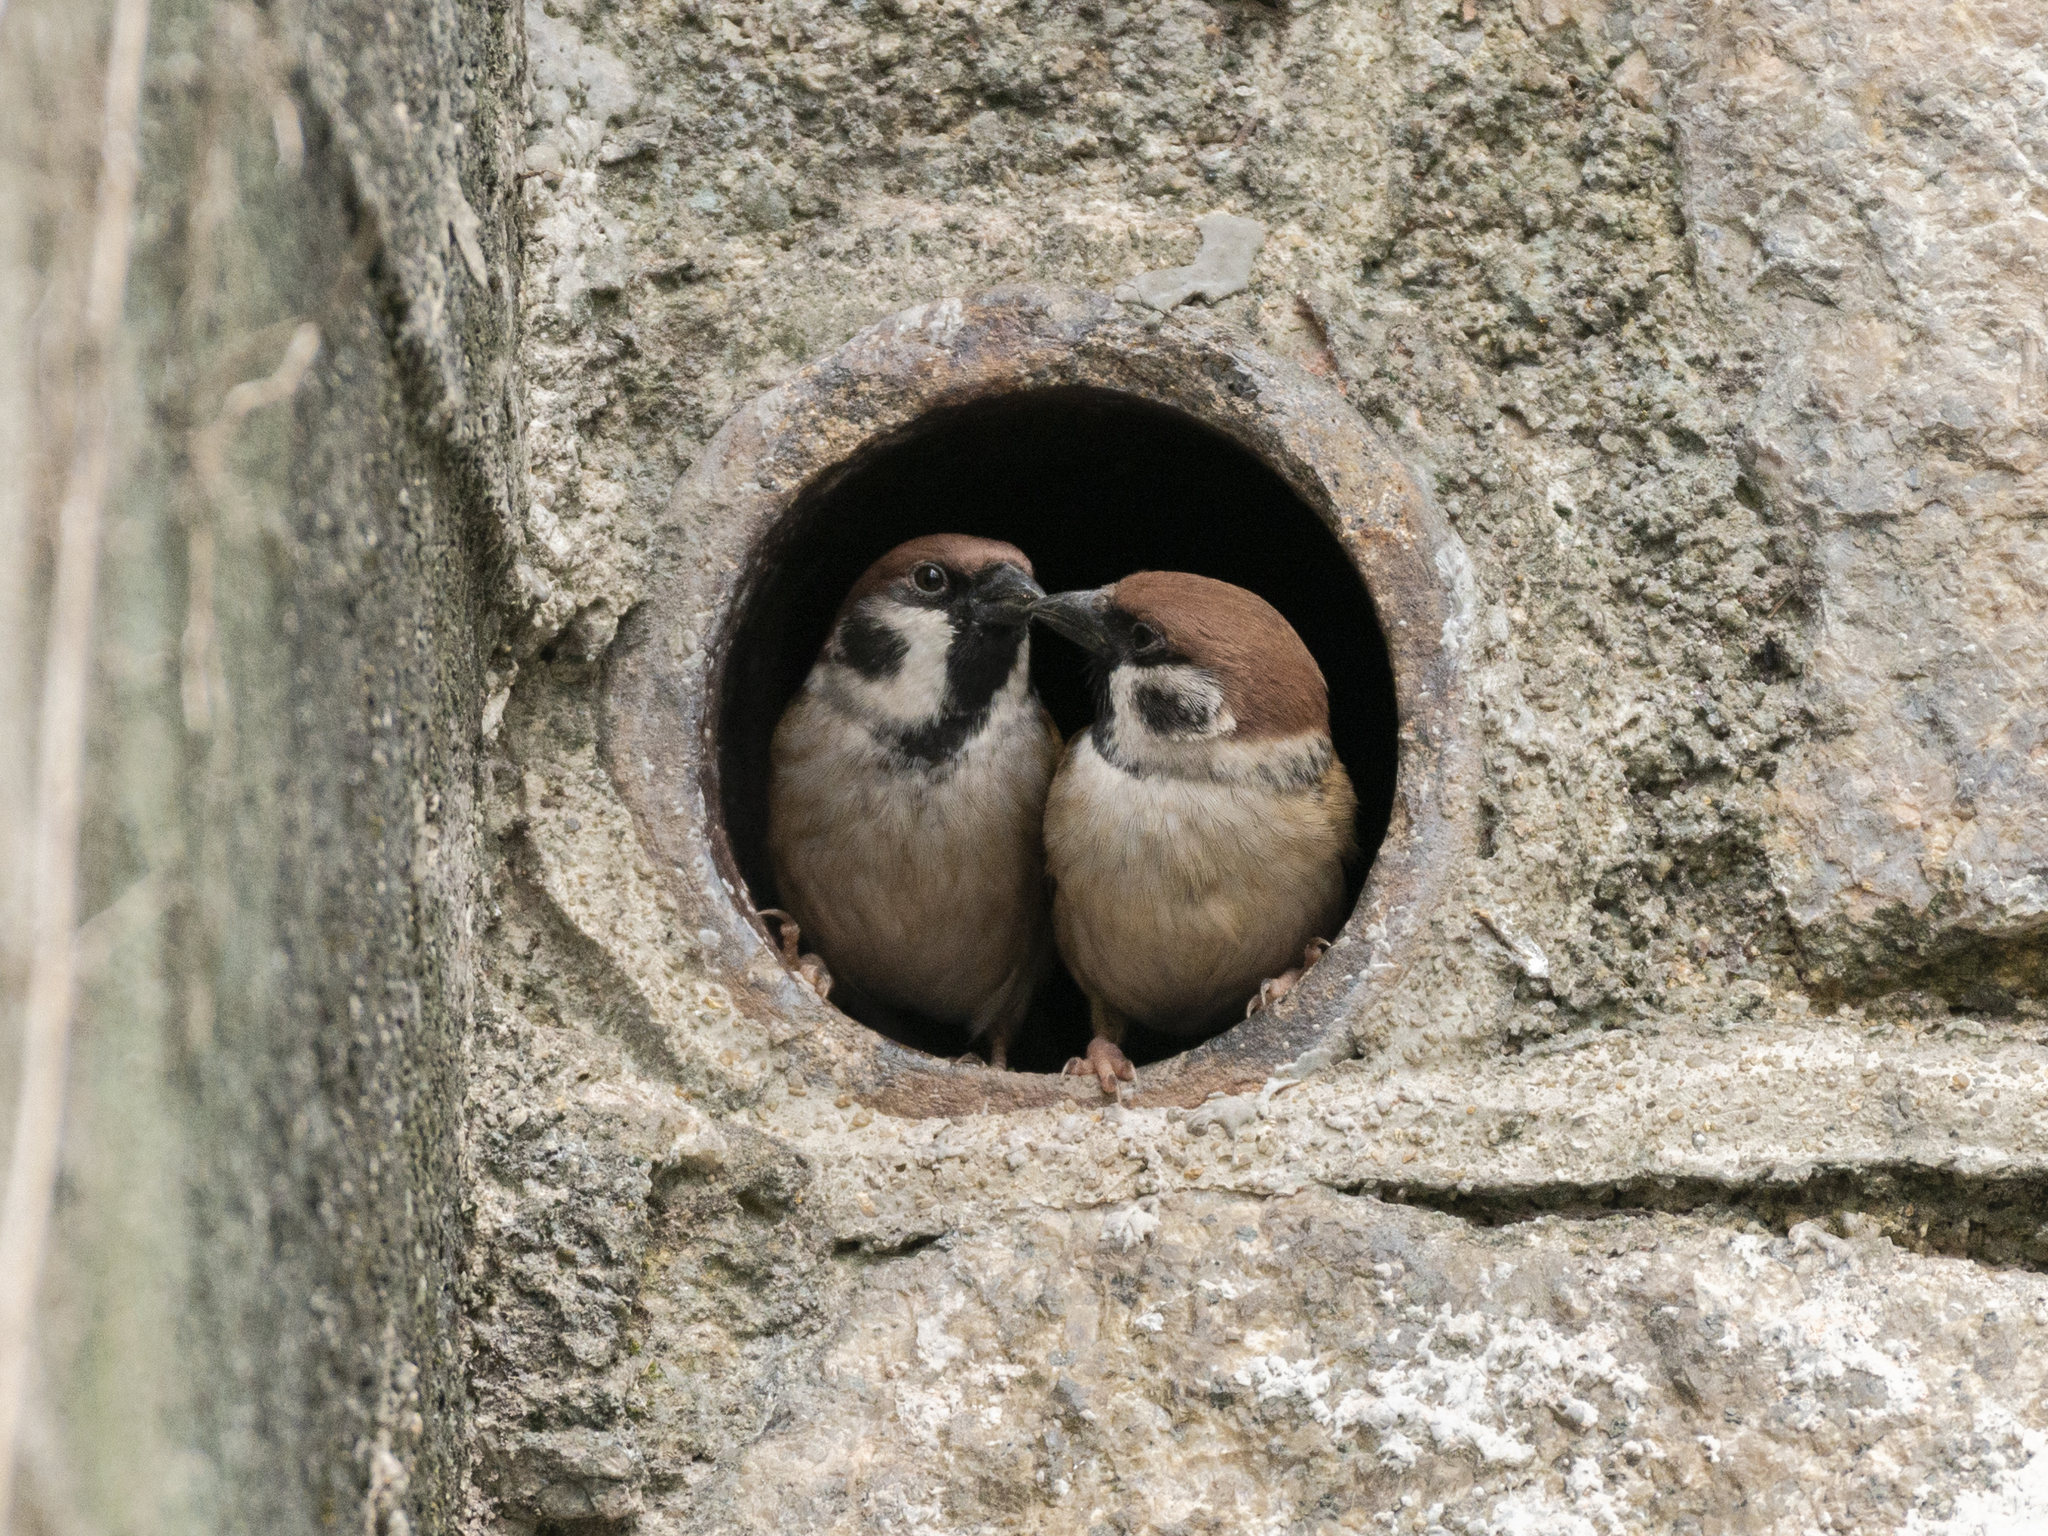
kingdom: Animalia
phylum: Chordata
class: Aves
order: Passeriformes
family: Passeridae
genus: Passer
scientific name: Passer montanus
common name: Eurasian tree sparrow
